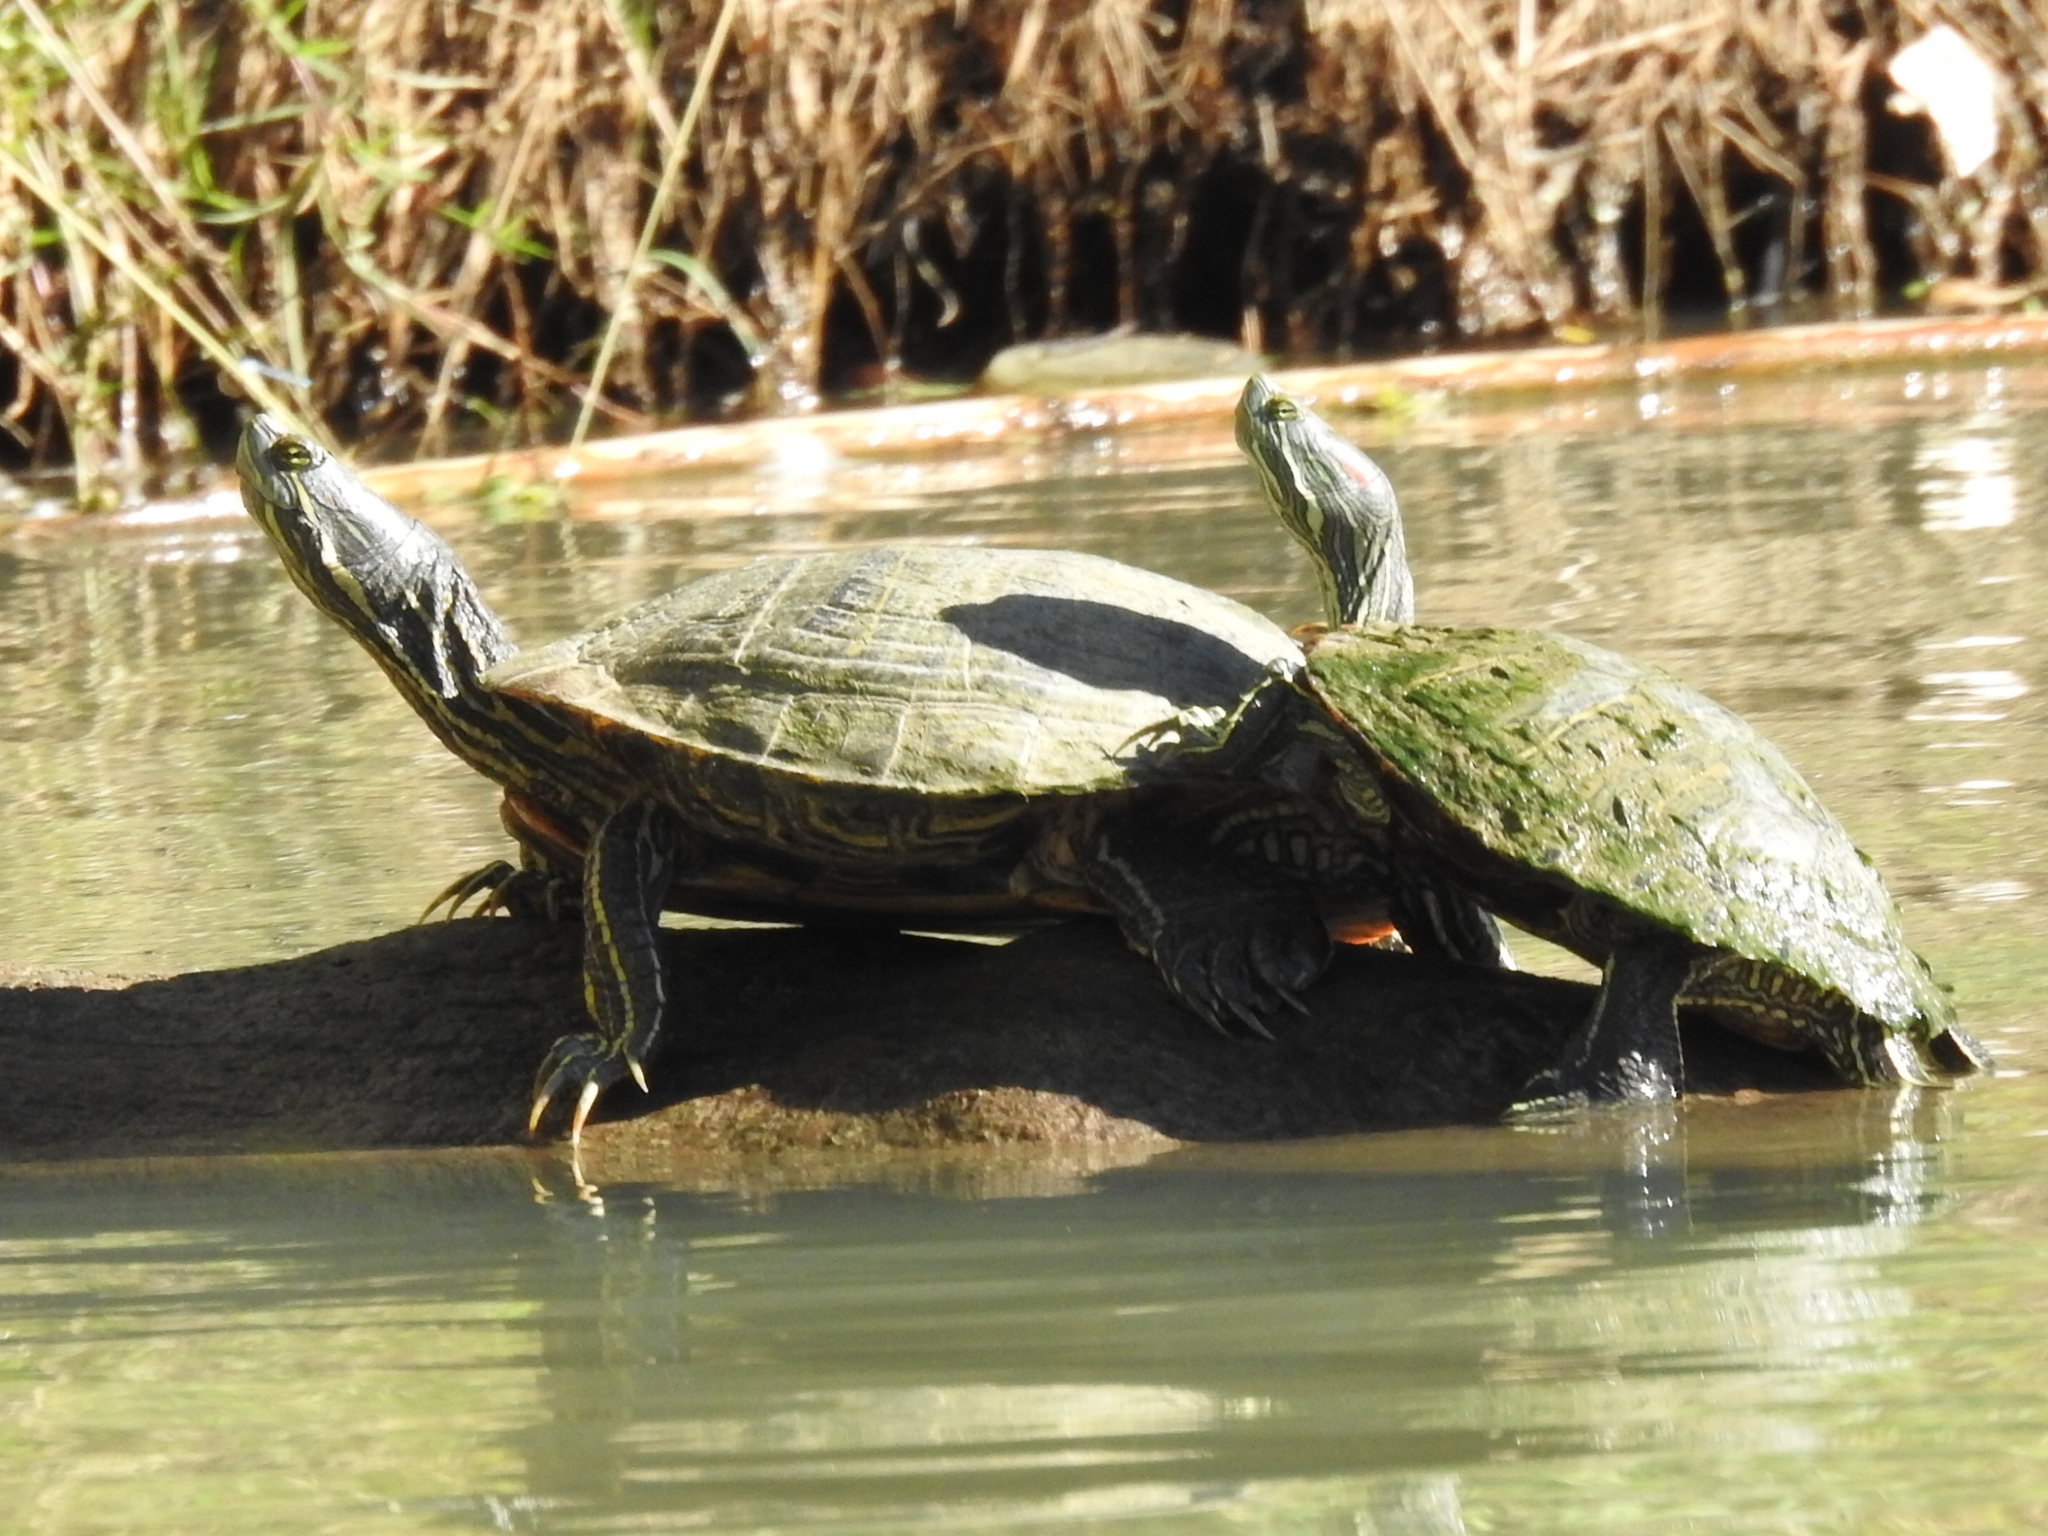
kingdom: Animalia
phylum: Chordata
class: Testudines
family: Emydidae
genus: Trachemys
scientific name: Trachemys scripta
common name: Slider
